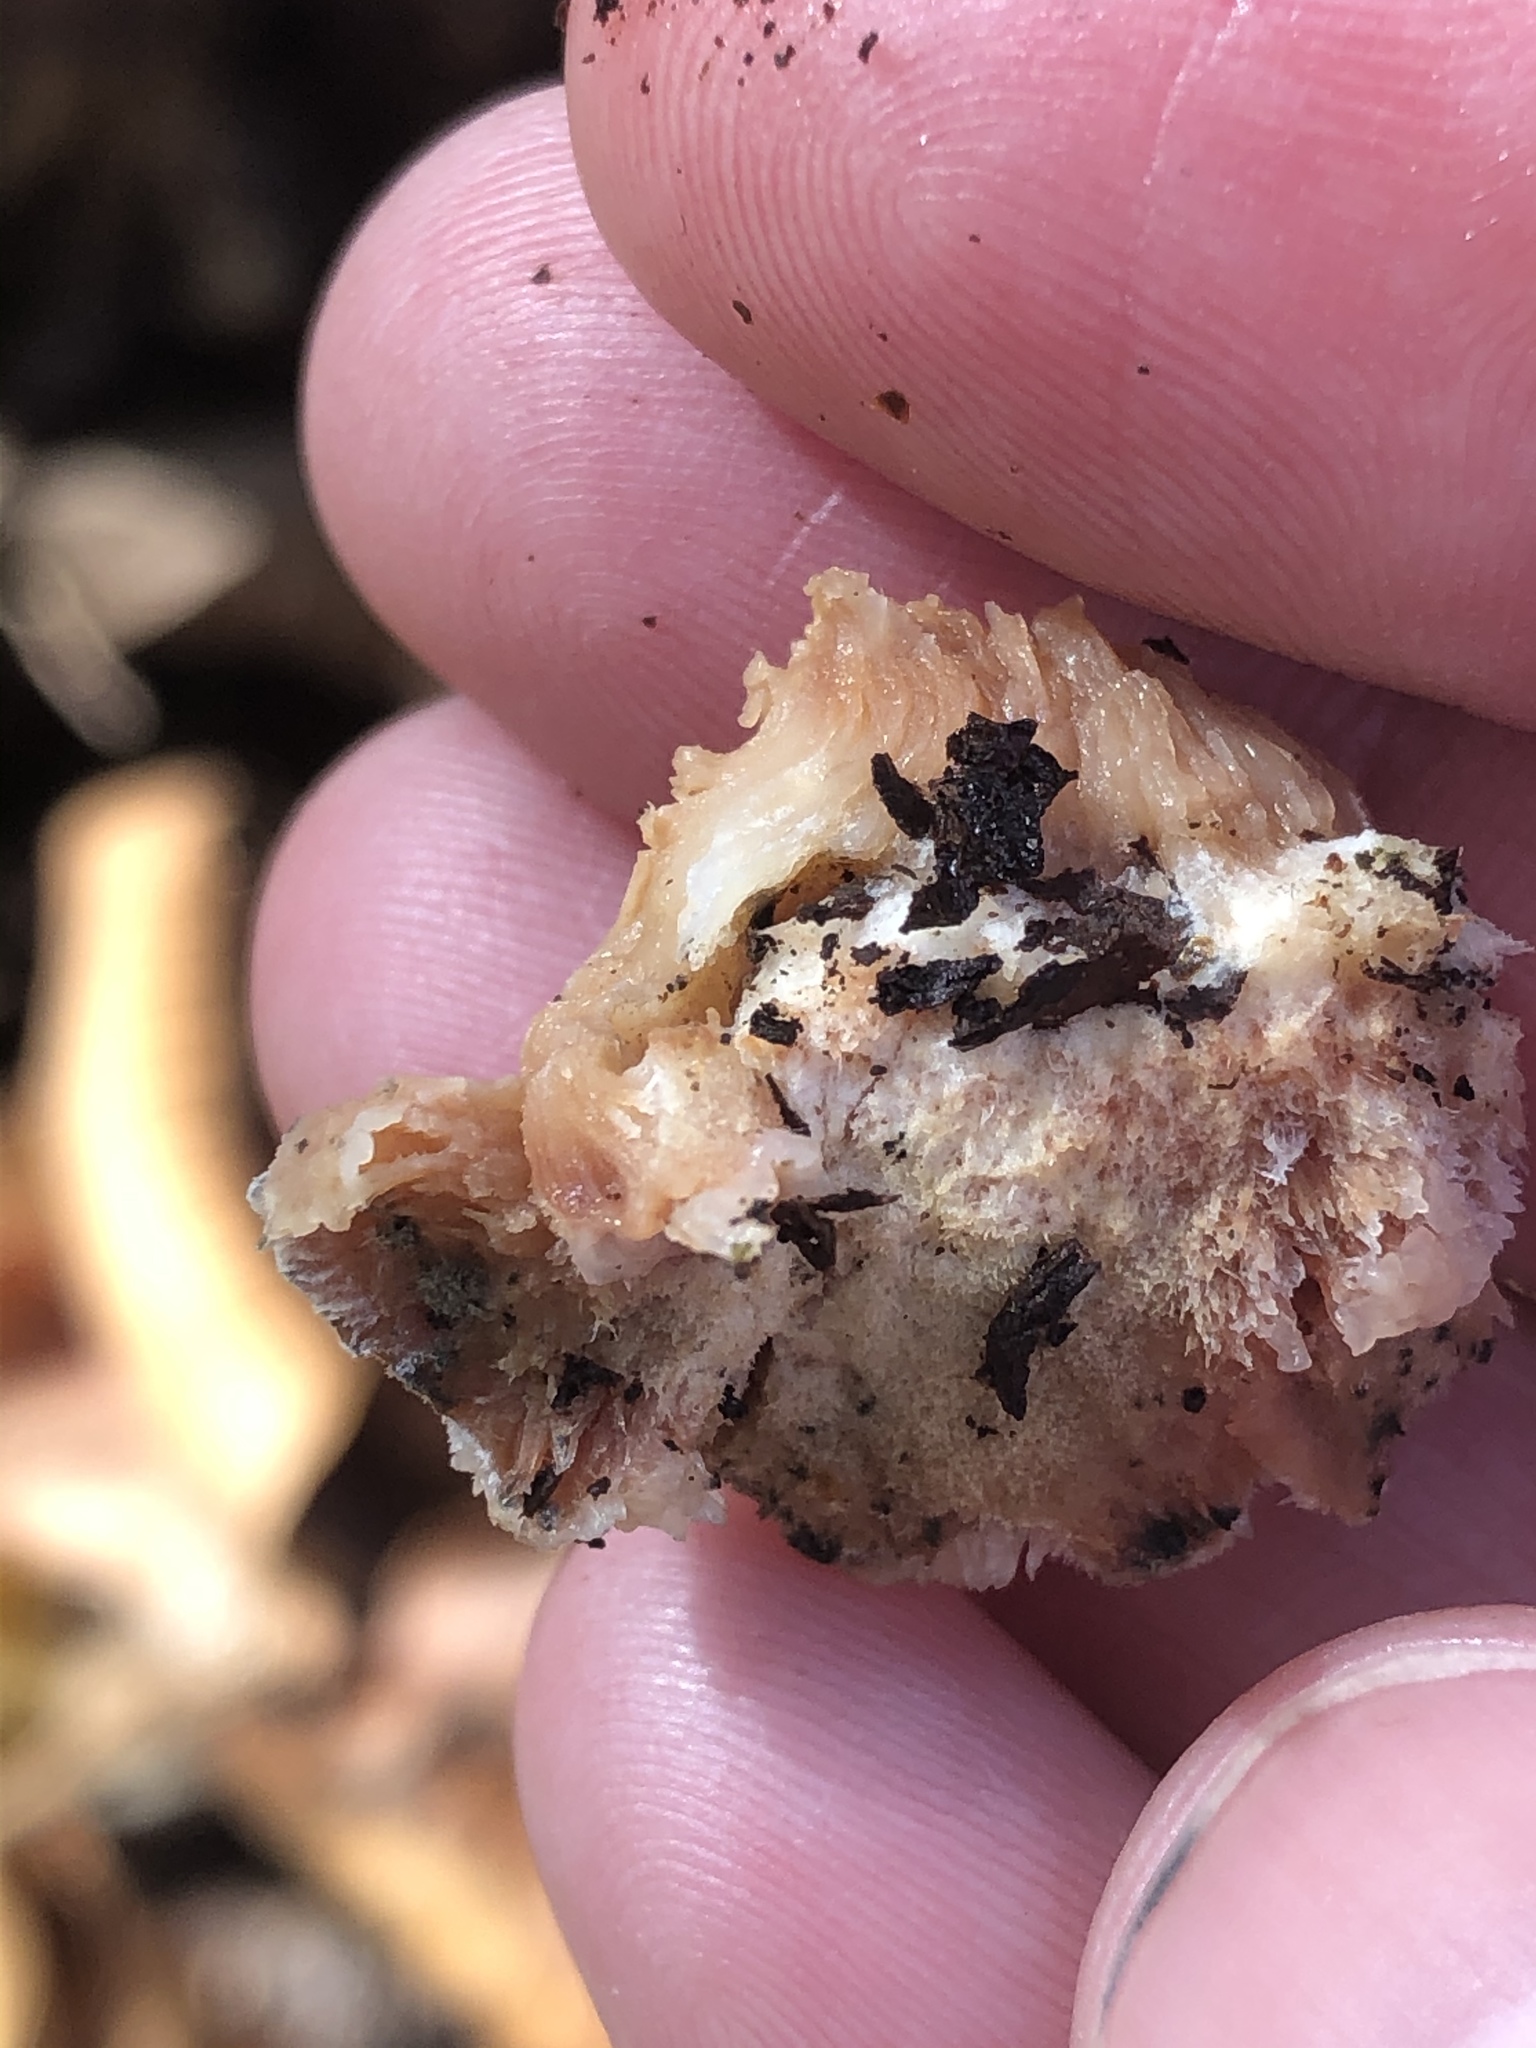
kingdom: Fungi
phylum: Basidiomycota
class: Agaricomycetes
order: Polyporales
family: Meruliaceae
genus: Phlebia
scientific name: Phlebia tremellosa
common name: Jelly rot
